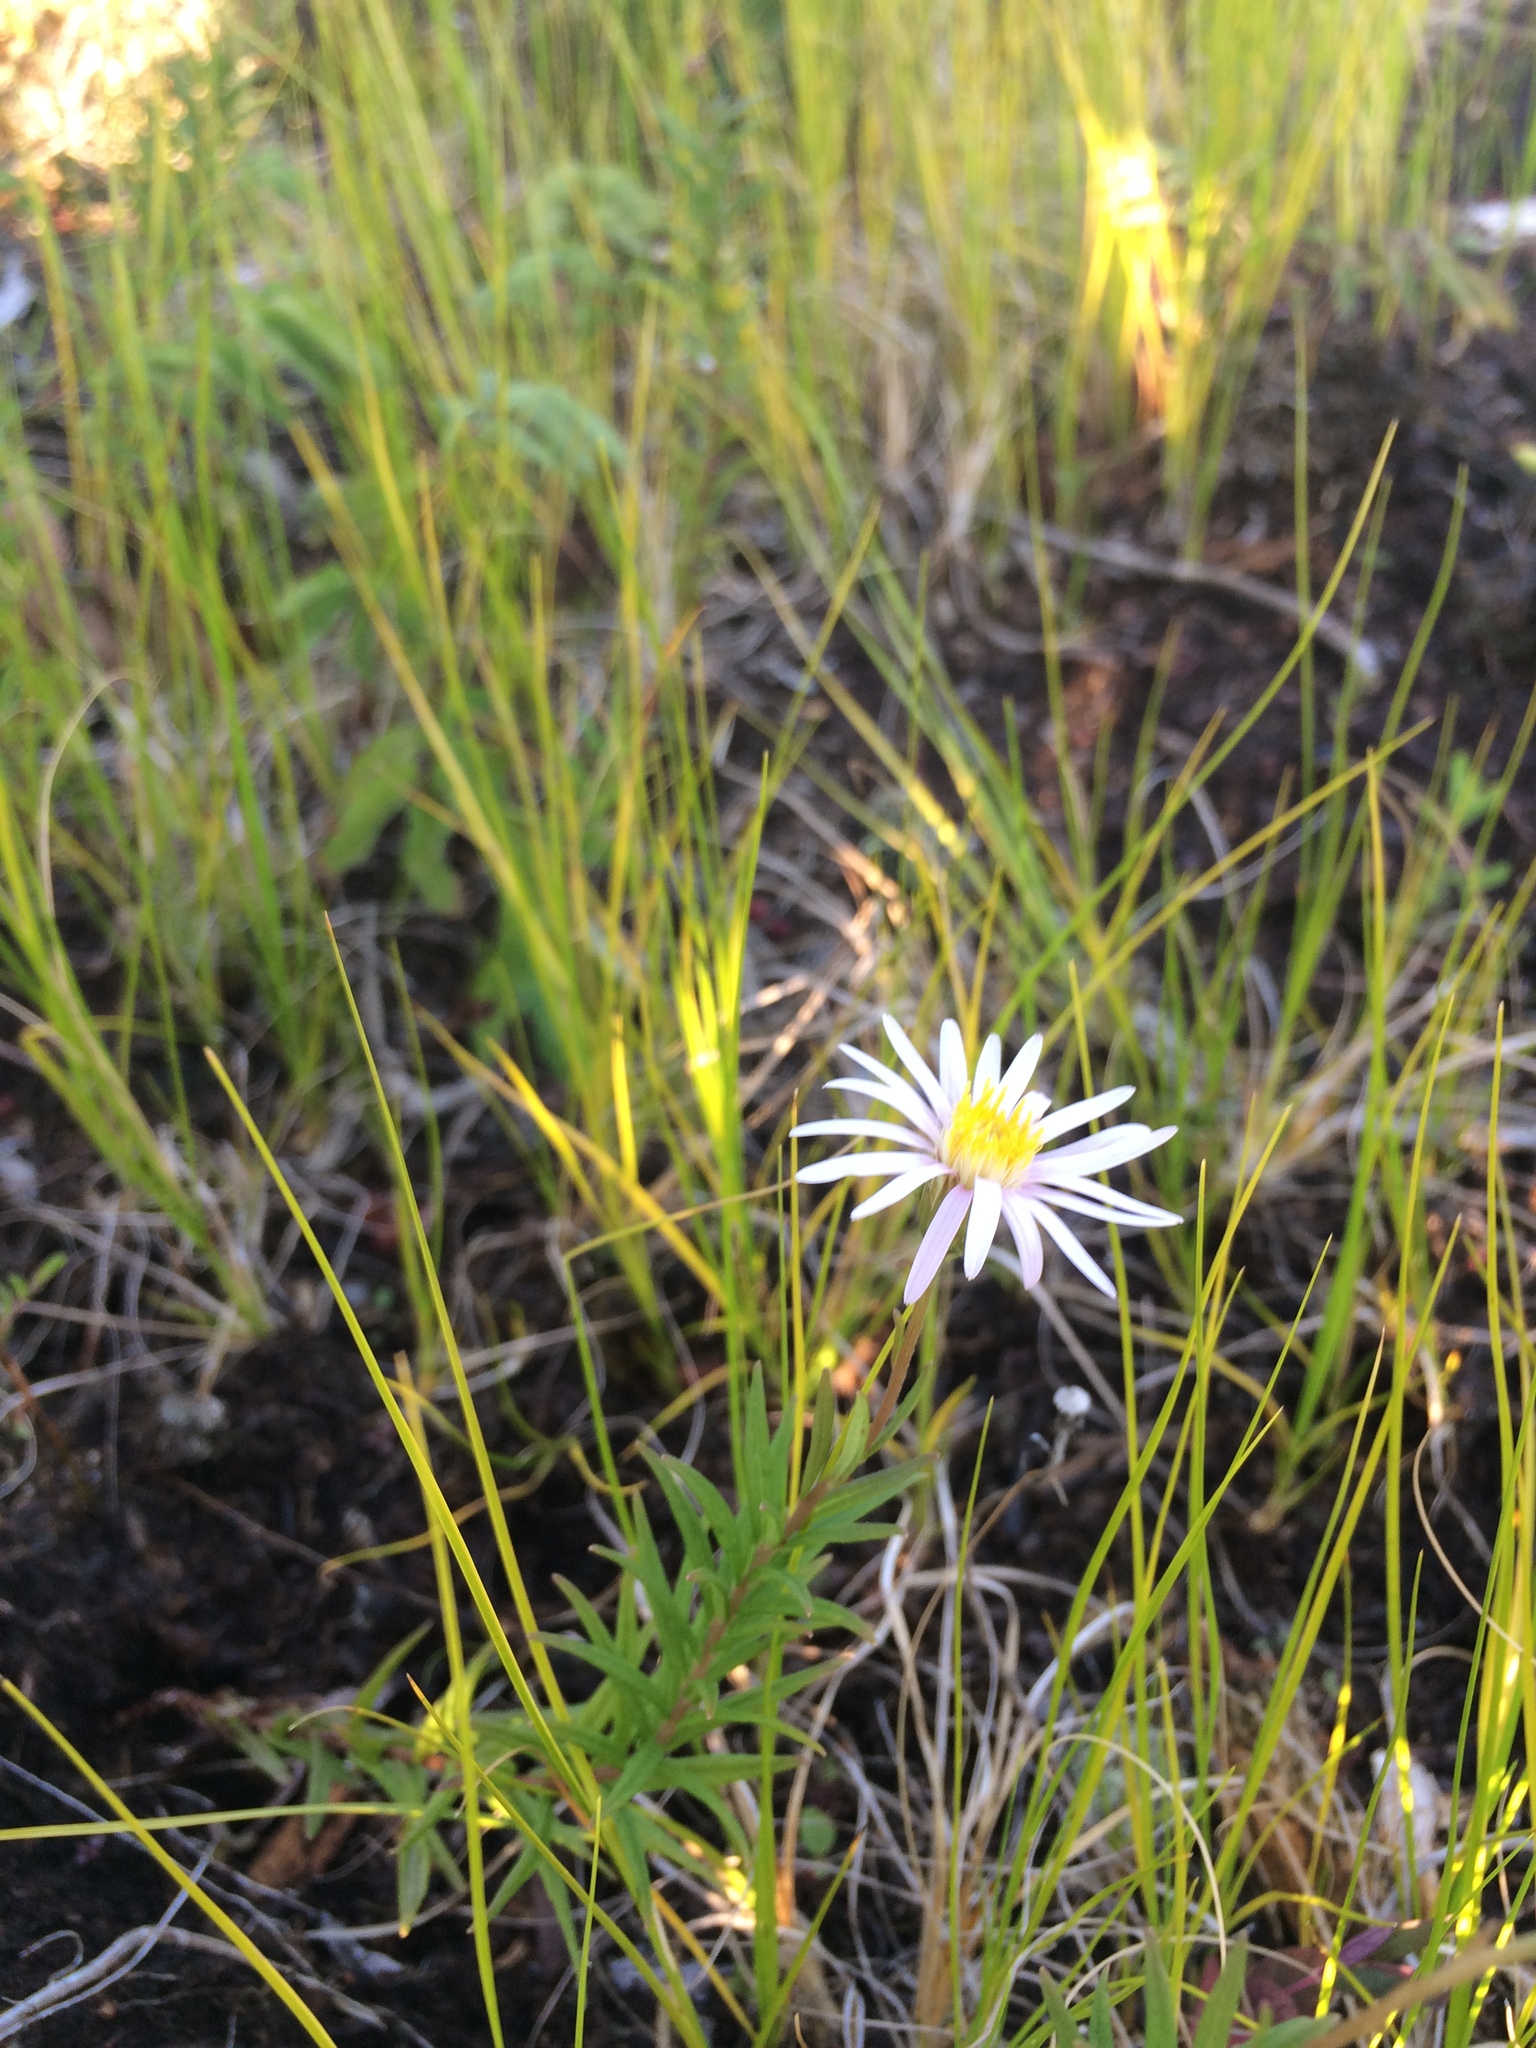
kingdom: Plantae
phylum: Tracheophyta
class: Magnoliopsida
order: Asterales
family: Asteraceae
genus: Oclemena
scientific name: Oclemena nemoralis
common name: Bog aster
